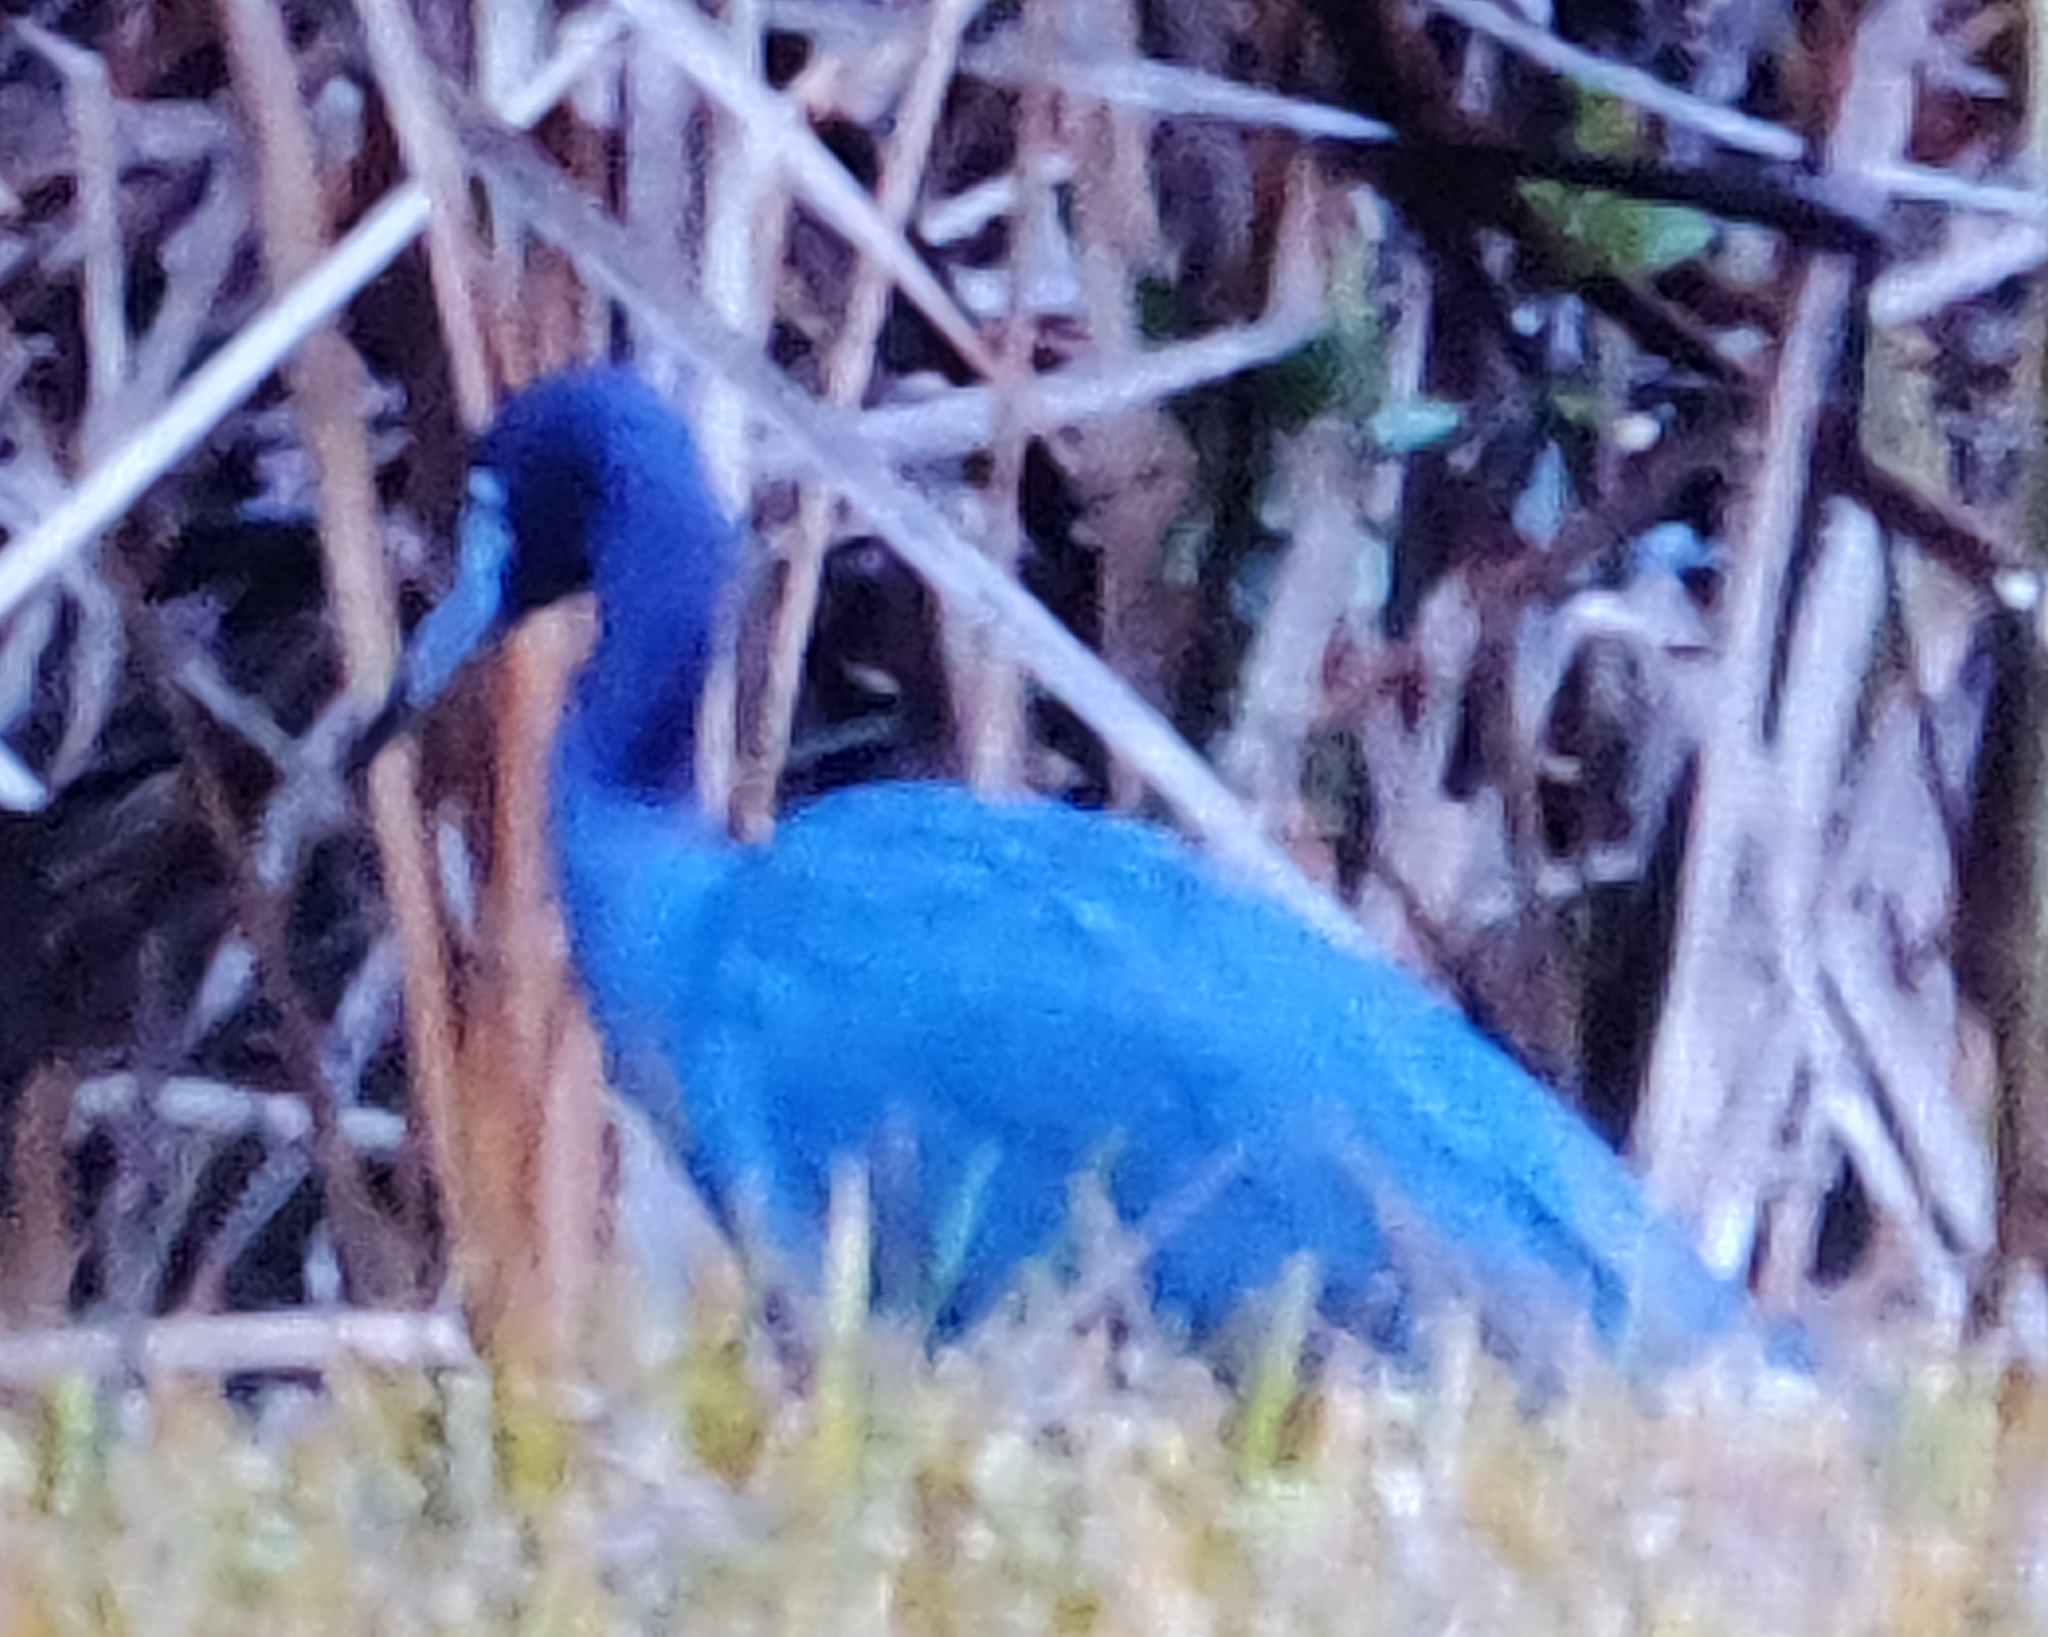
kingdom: Animalia
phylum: Chordata
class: Aves
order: Pelecaniformes
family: Ardeidae
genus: Egretta
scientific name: Egretta caerulea
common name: Little blue heron
